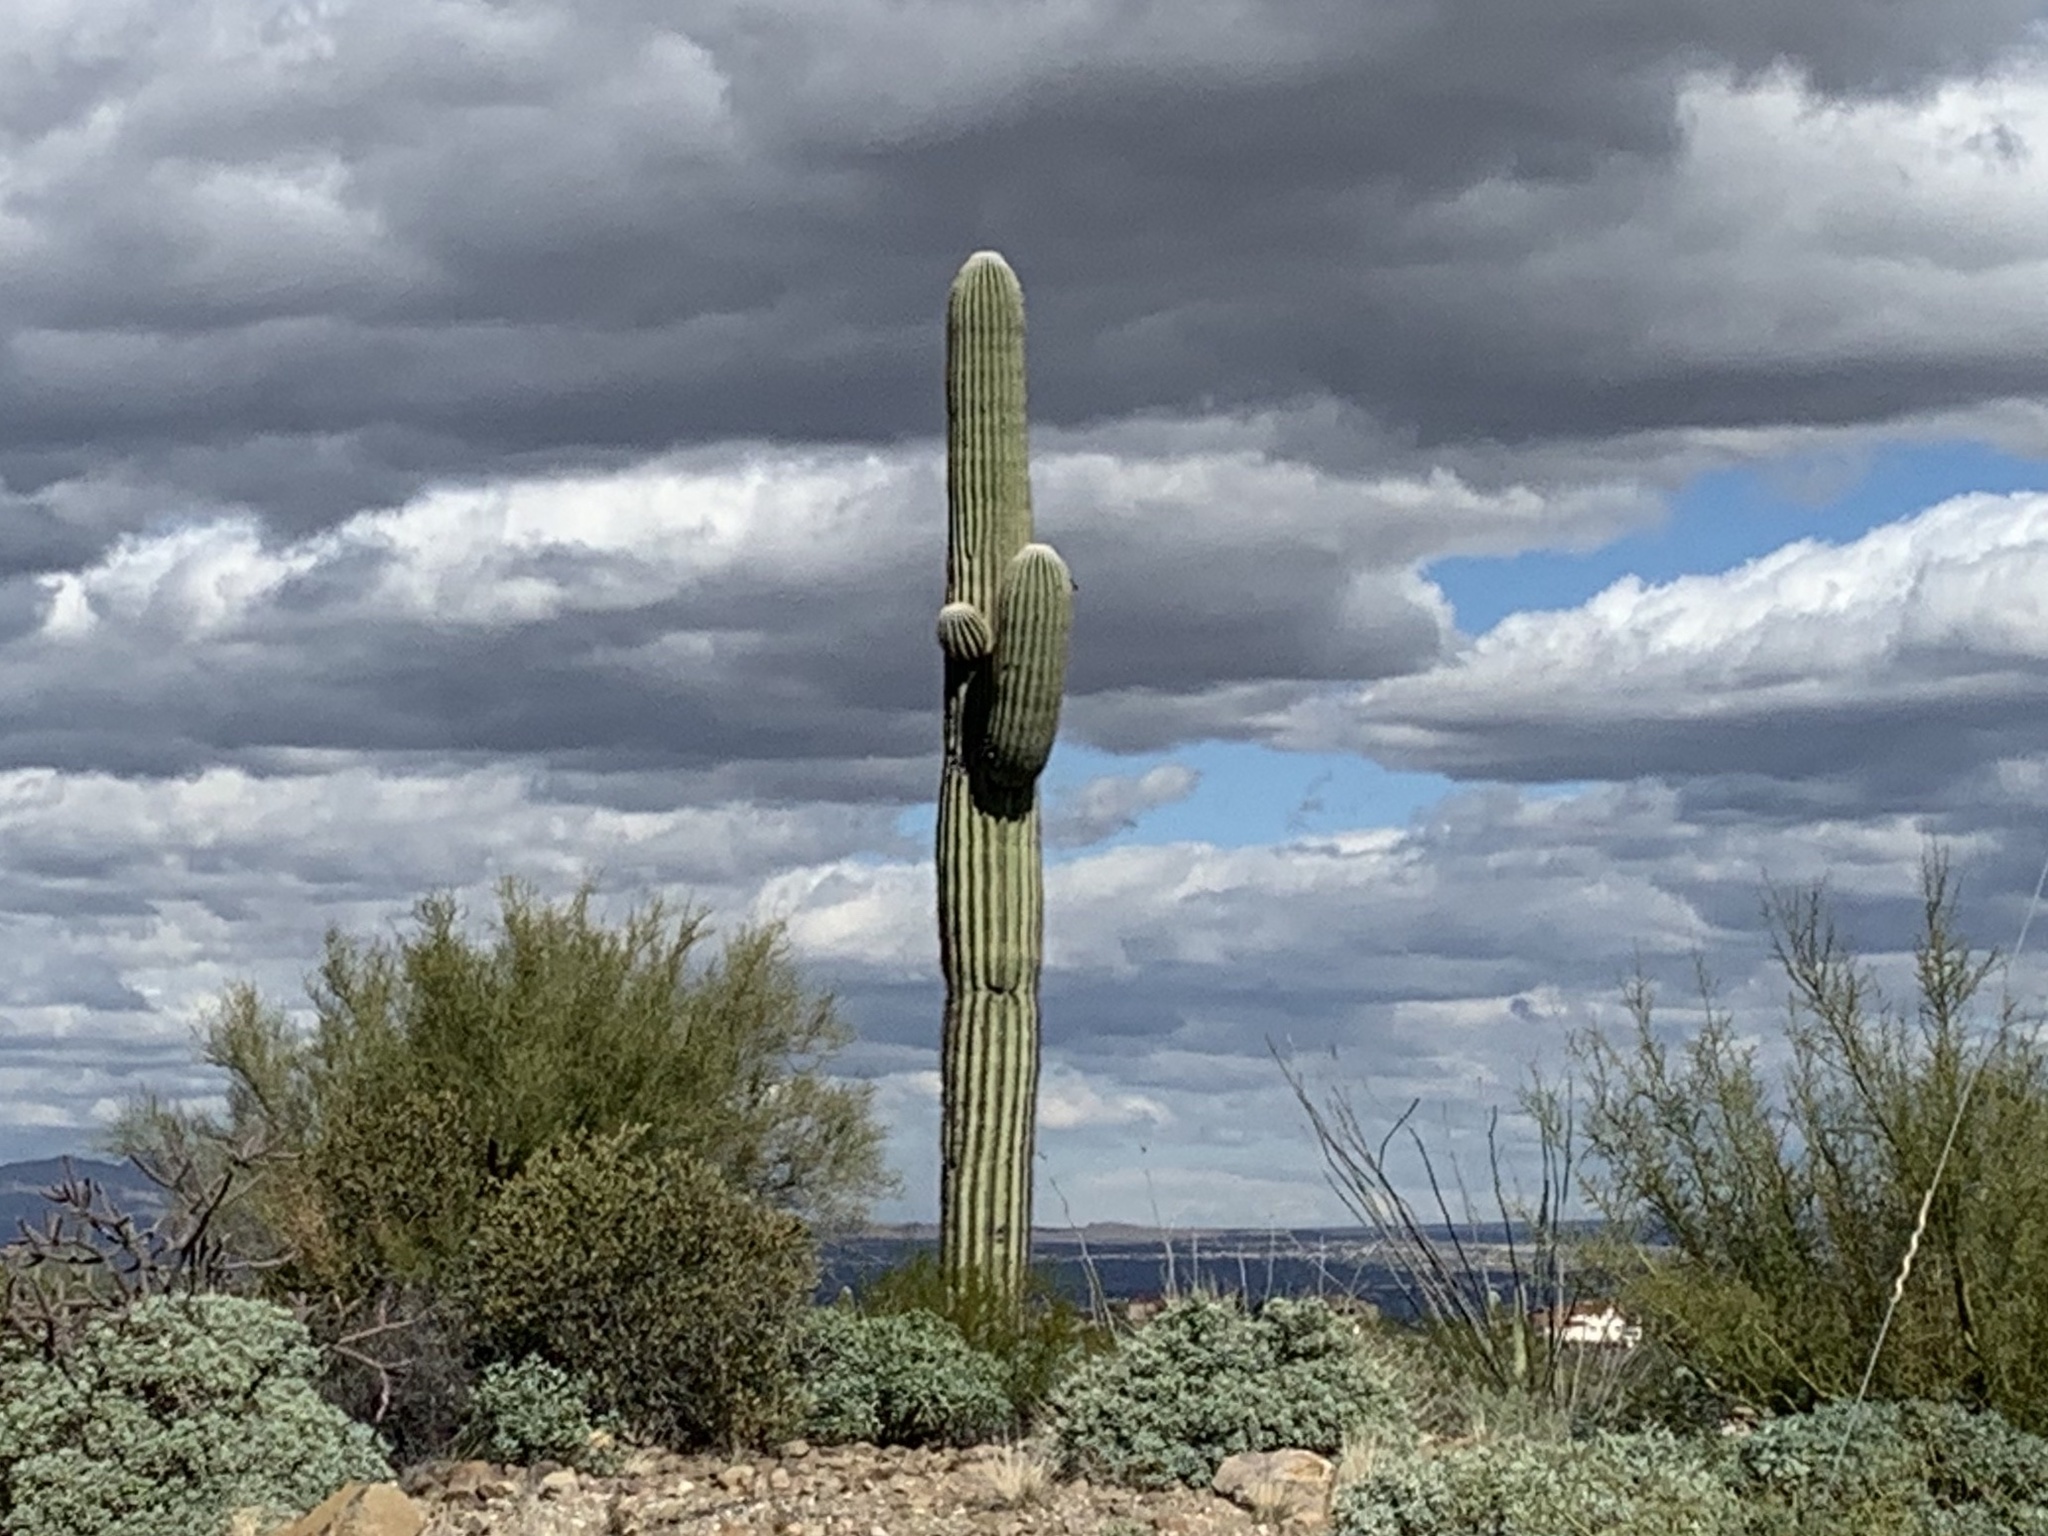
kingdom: Plantae
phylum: Tracheophyta
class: Magnoliopsida
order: Caryophyllales
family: Cactaceae
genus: Carnegiea
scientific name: Carnegiea gigantea
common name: Saguaro
